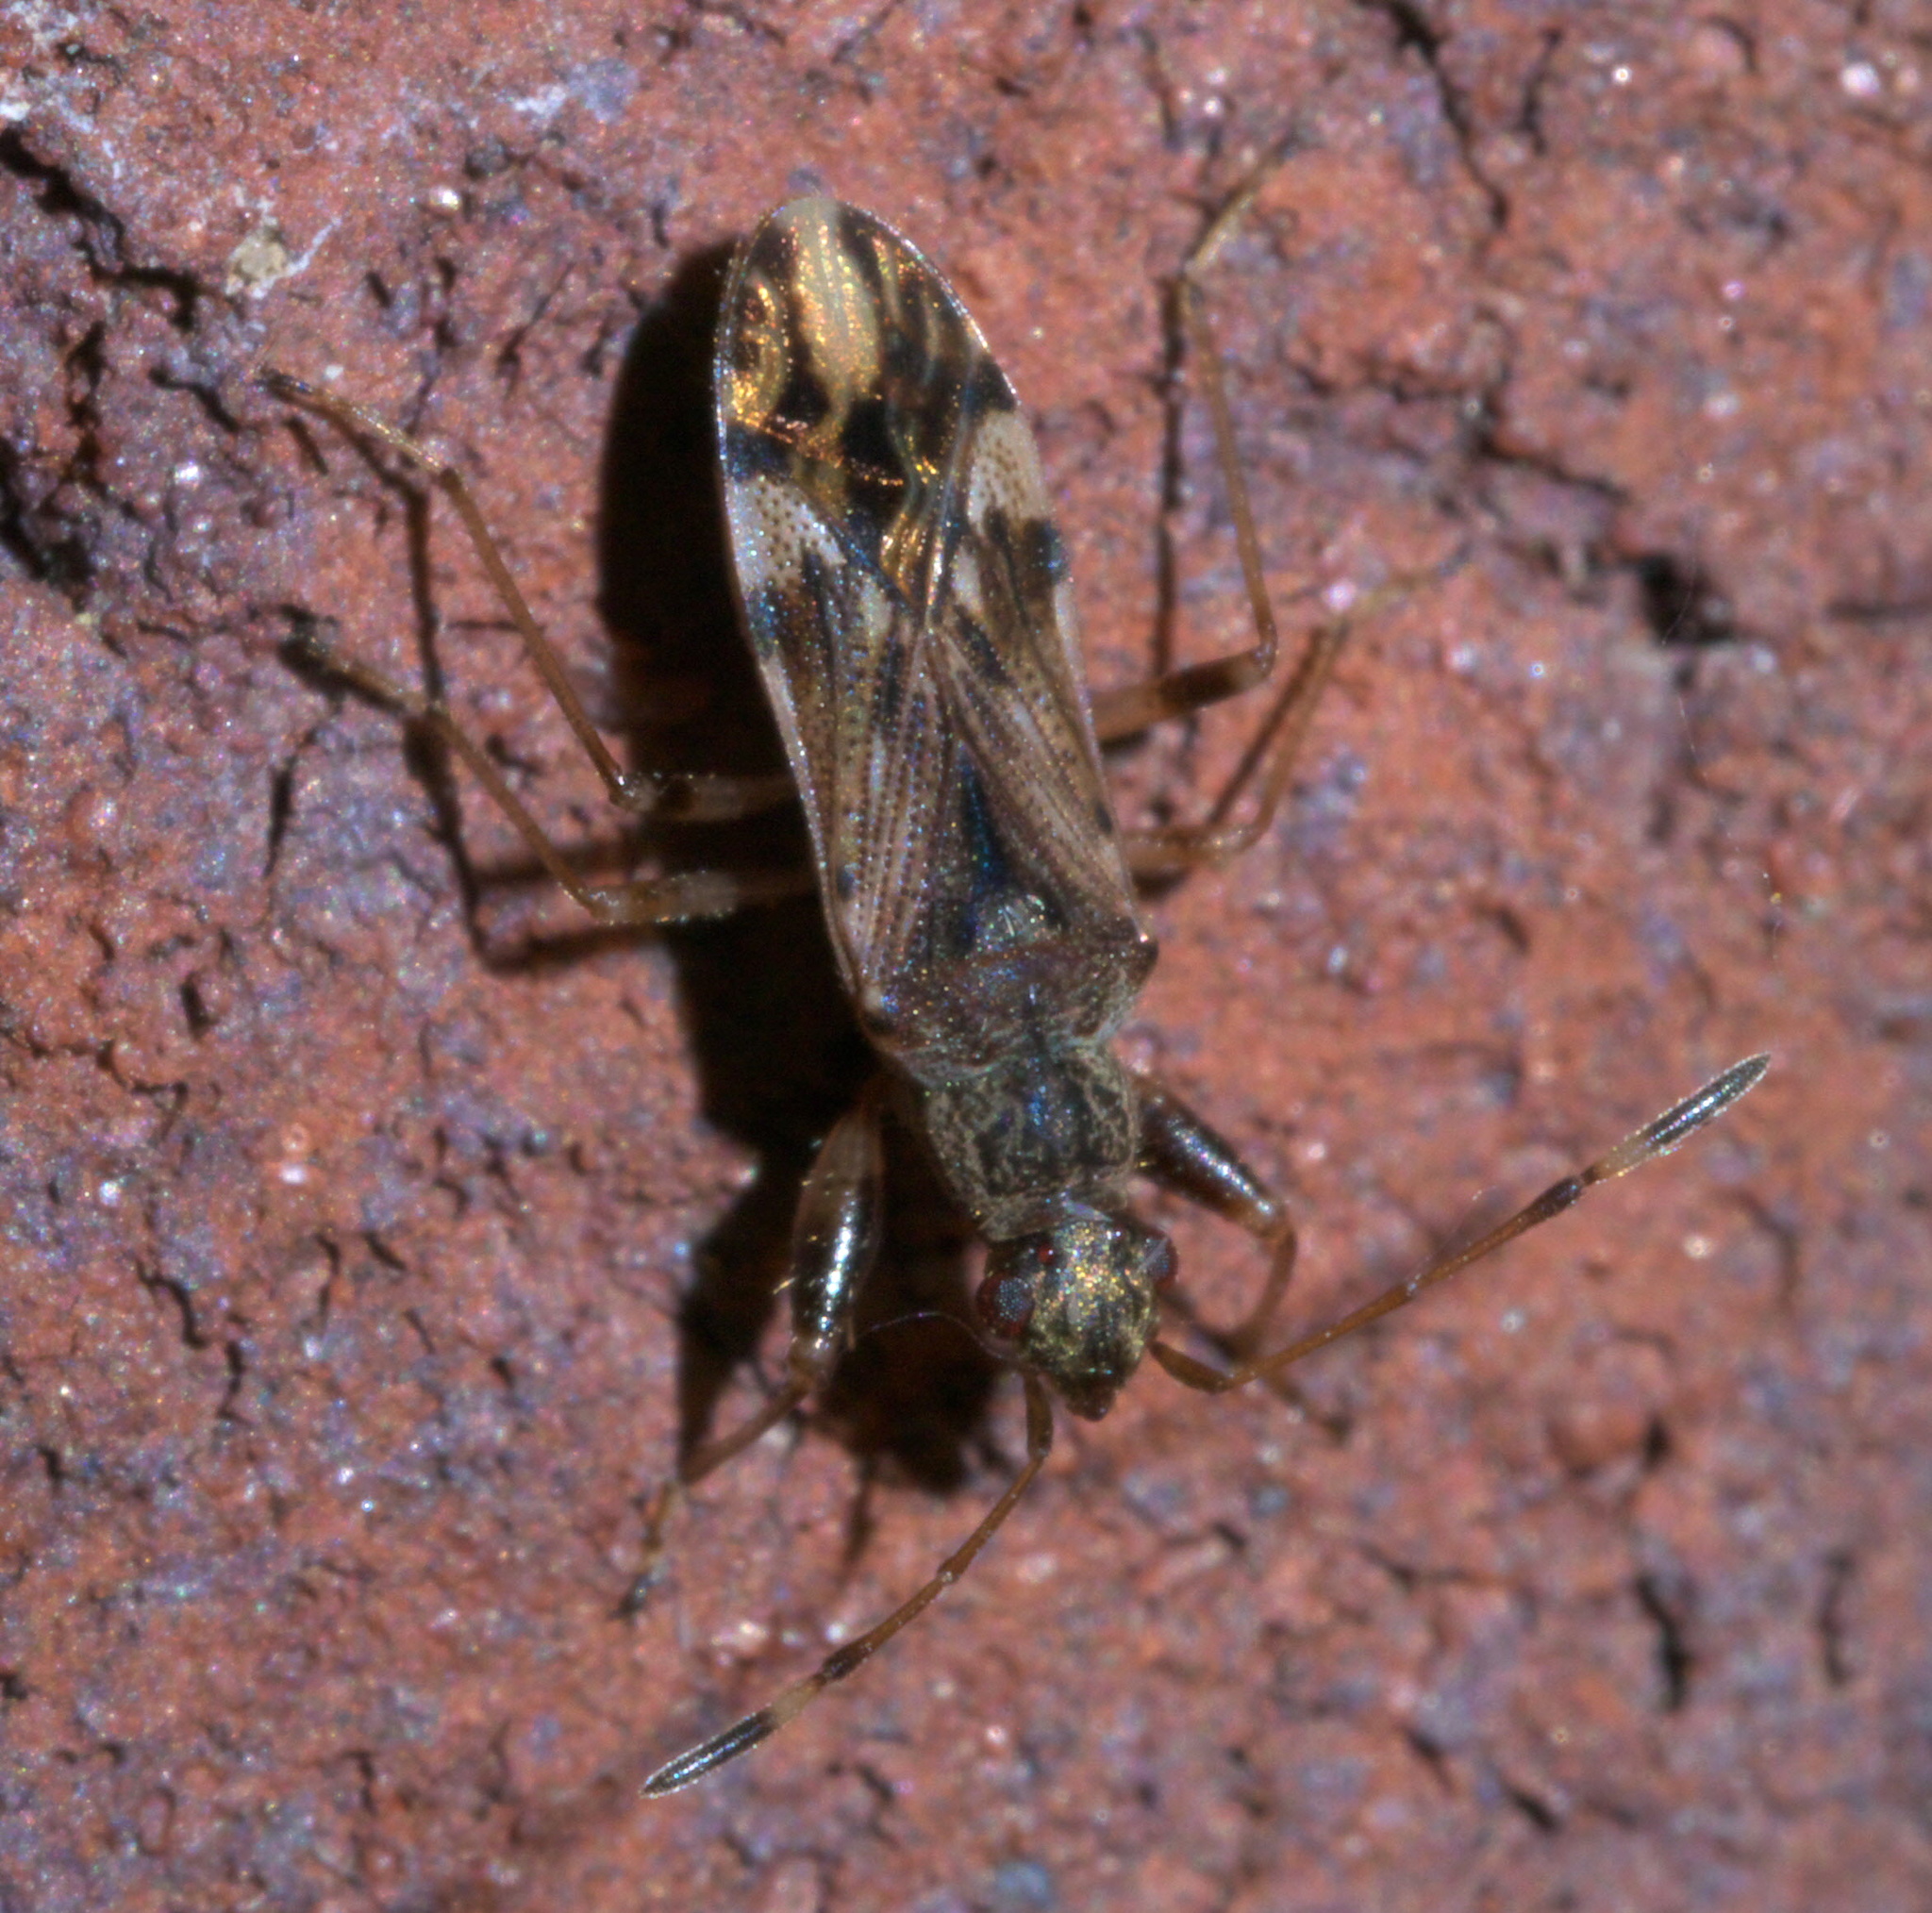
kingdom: Animalia
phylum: Arthropoda
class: Insecta
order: Hemiptera
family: Rhyparochromidae
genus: Neopamera
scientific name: Neopamera albocincta
